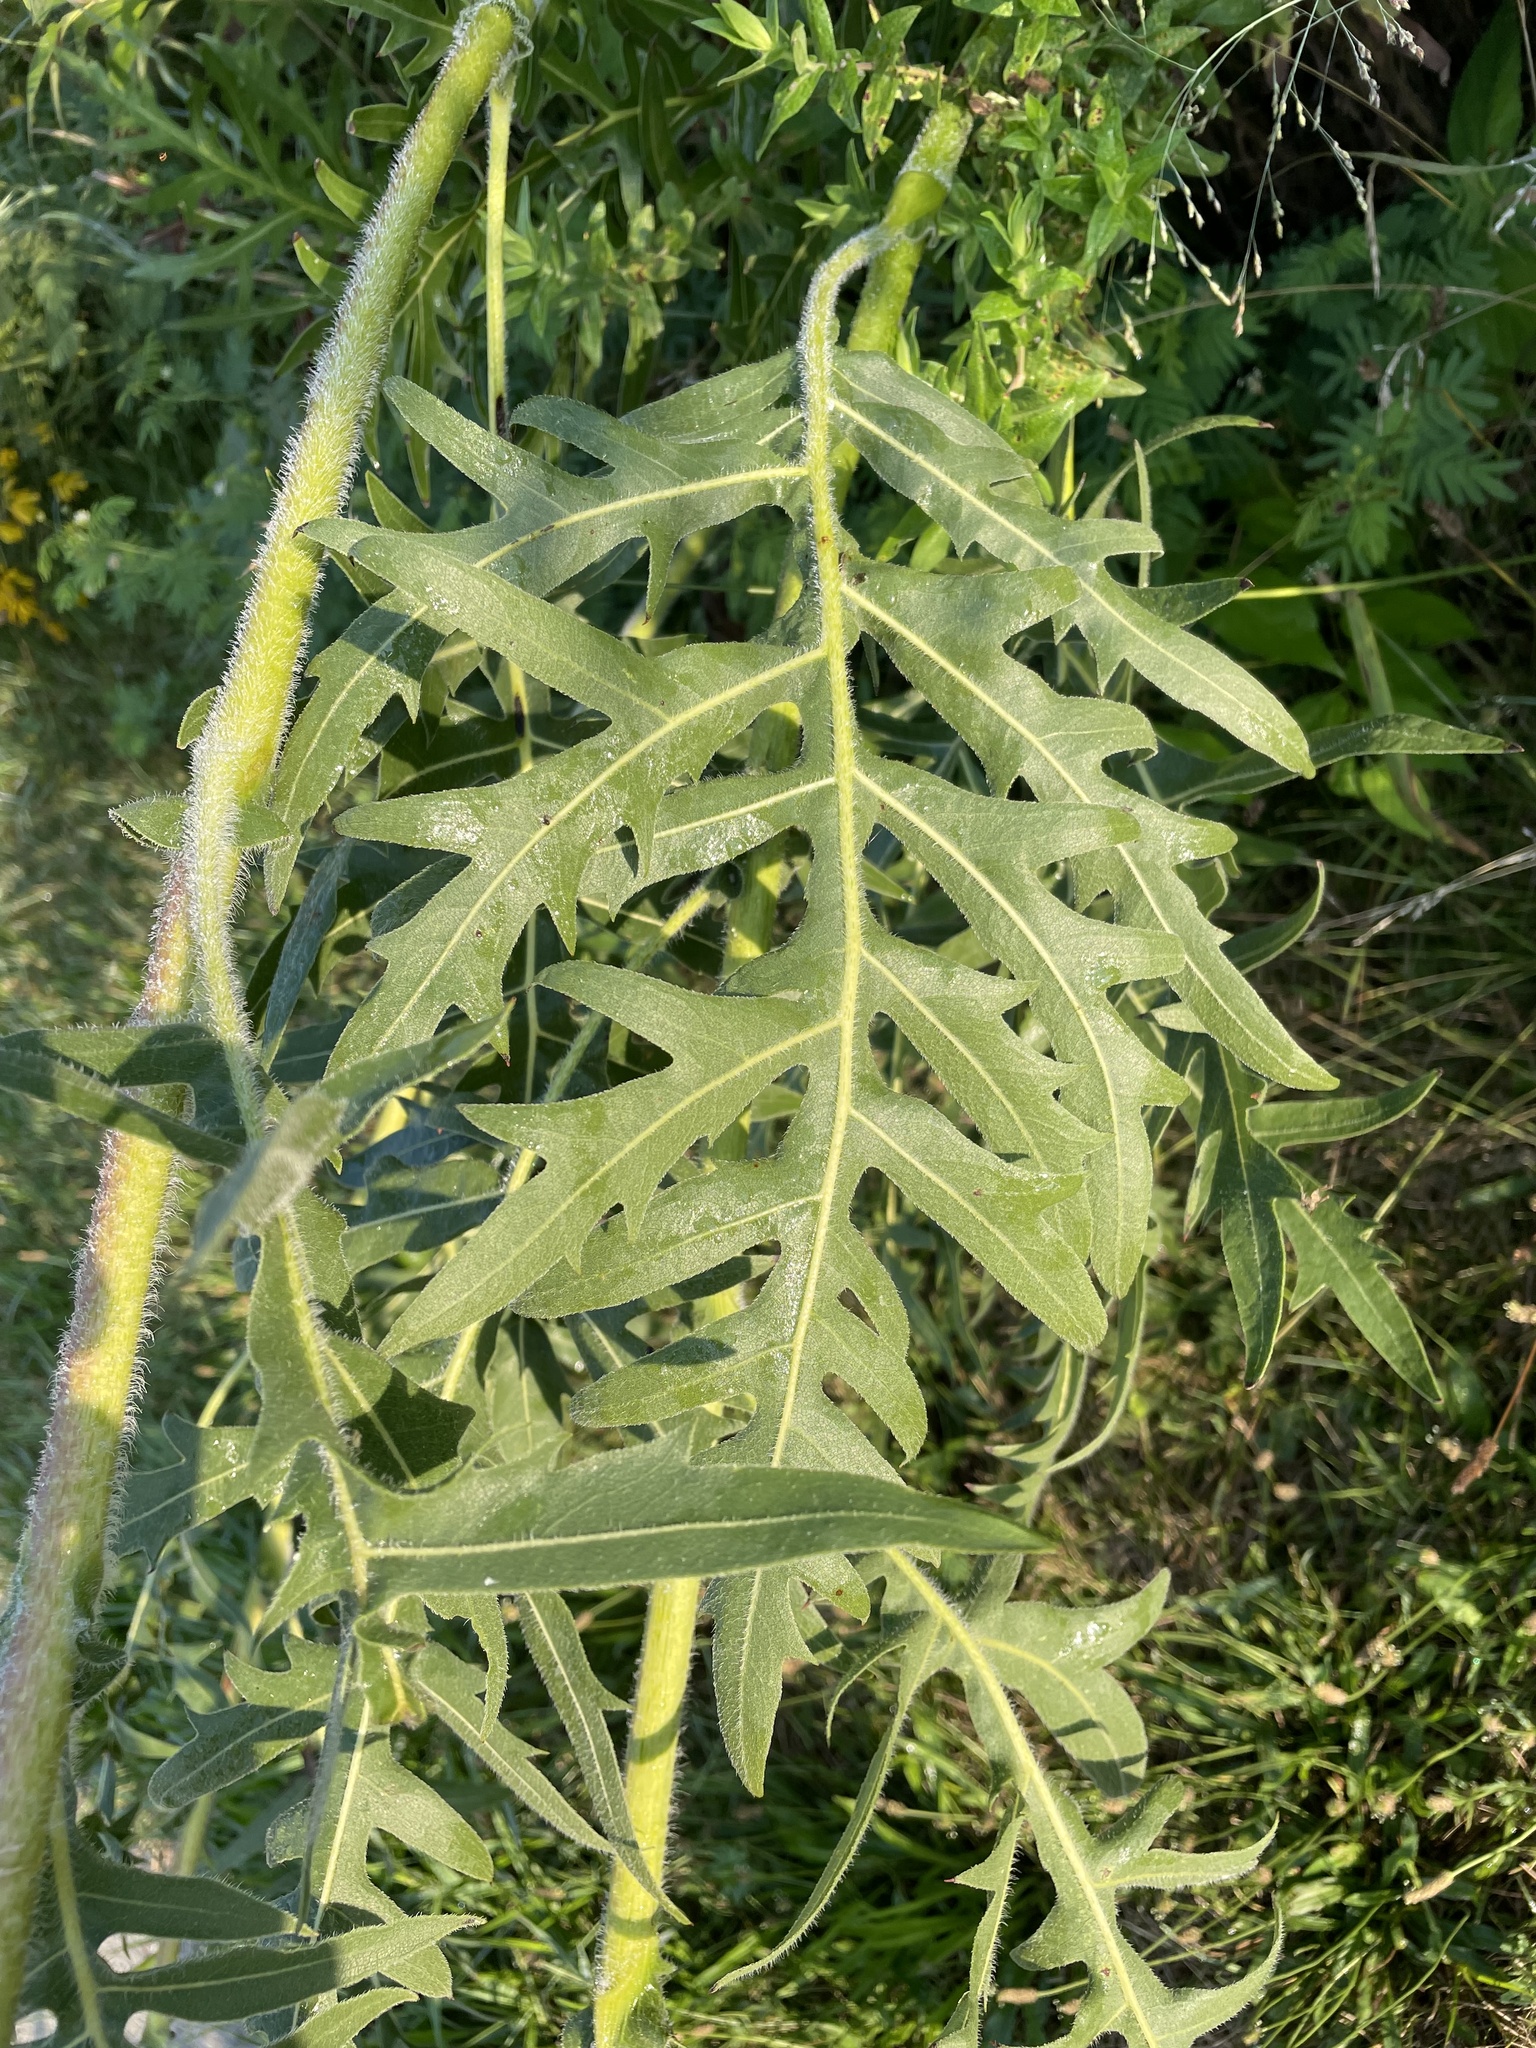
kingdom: Plantae
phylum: Tracheophyta
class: Magnoliopsida
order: Asterales
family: Asteraceae
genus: Silphium
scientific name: Silphium laciniatum
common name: Polarplant
